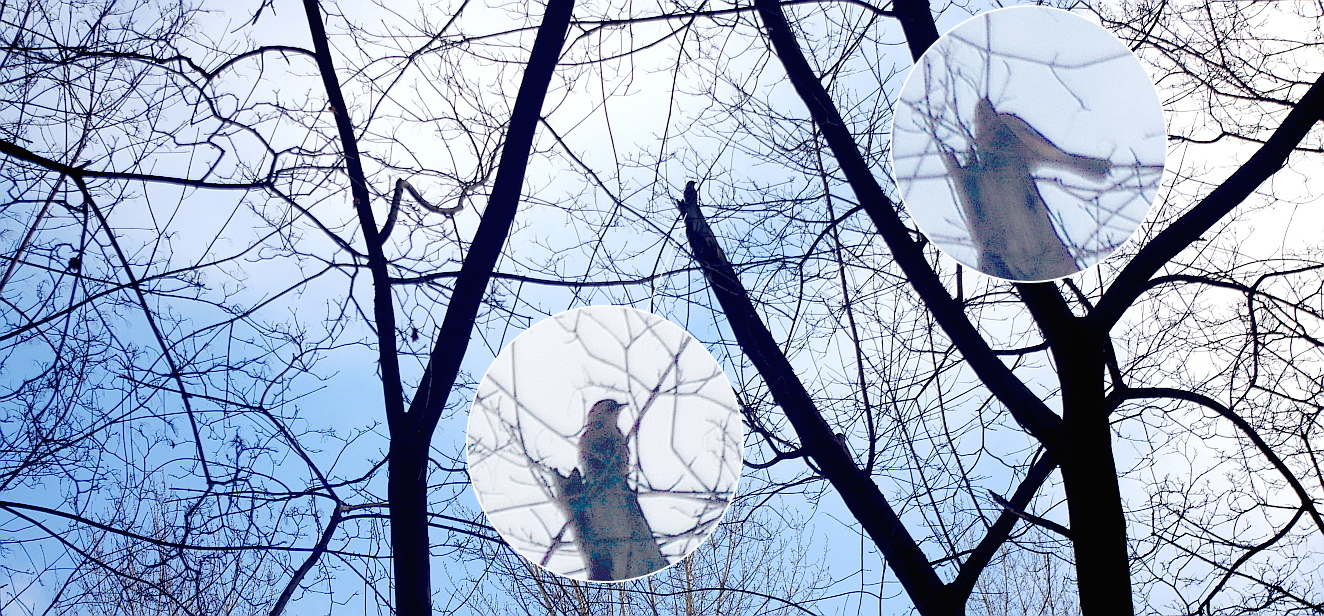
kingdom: Animalia
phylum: Chordata
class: Aves
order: Passeriformes
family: Corvidae
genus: Garrulus
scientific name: Garrulus glandarius
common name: Eurasian jay
